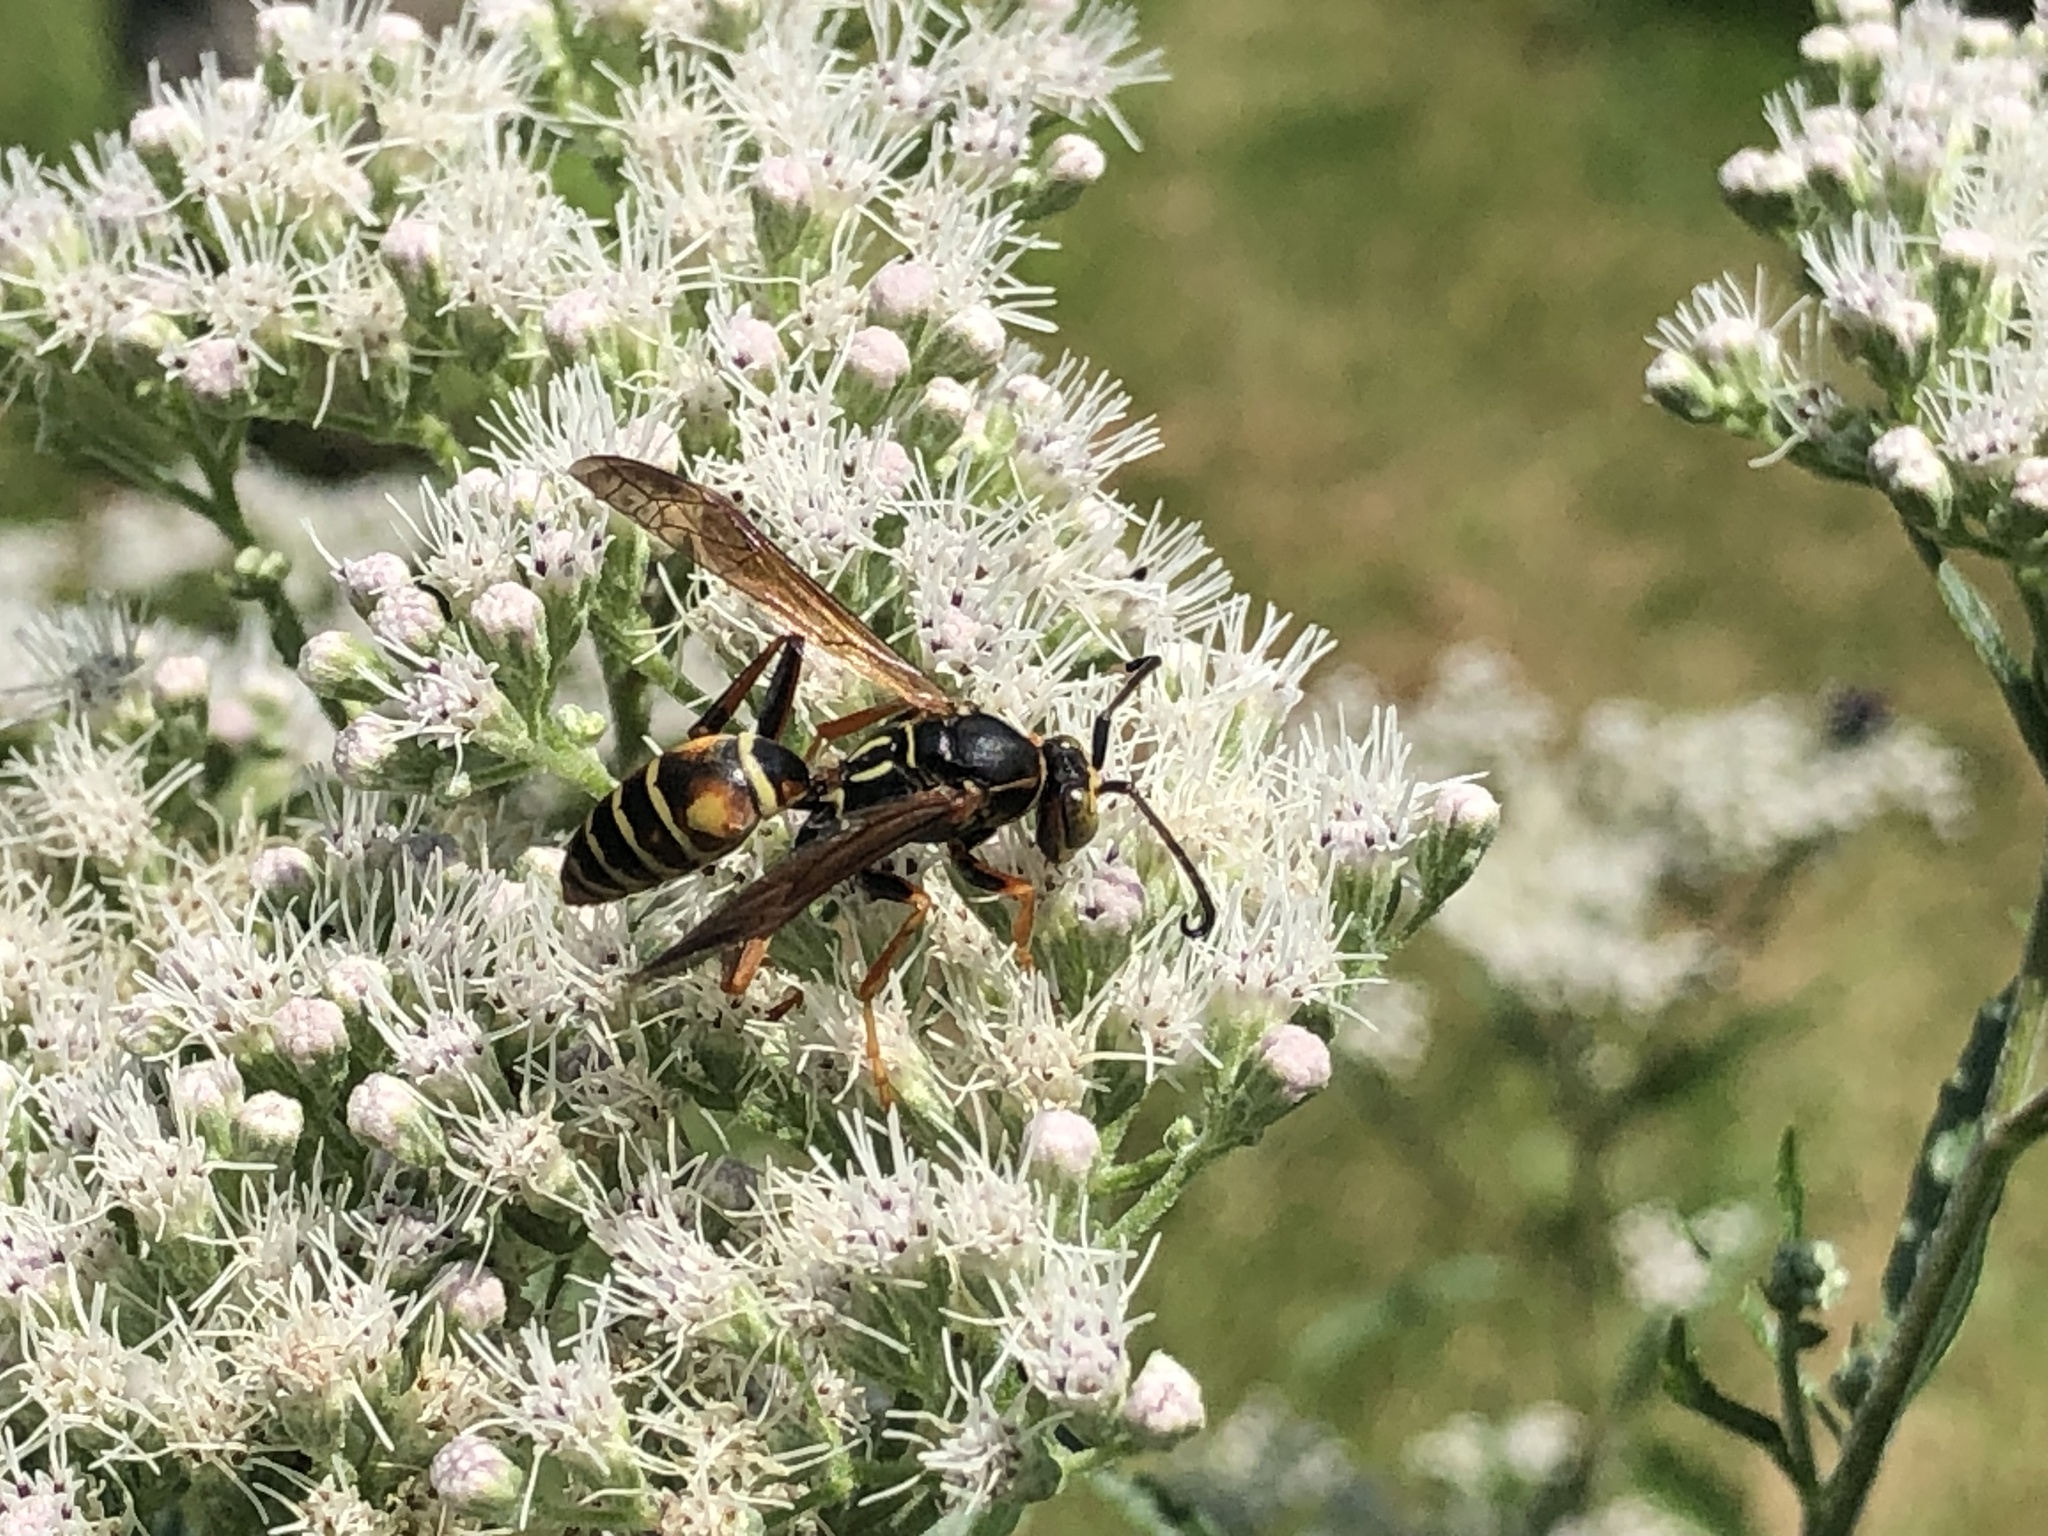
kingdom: Animalia
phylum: Arthropoda
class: Insecta
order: Hymenoptera
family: Eumenidae
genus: Polistes
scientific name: Polistes fuscatus
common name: Dark paper wasp
